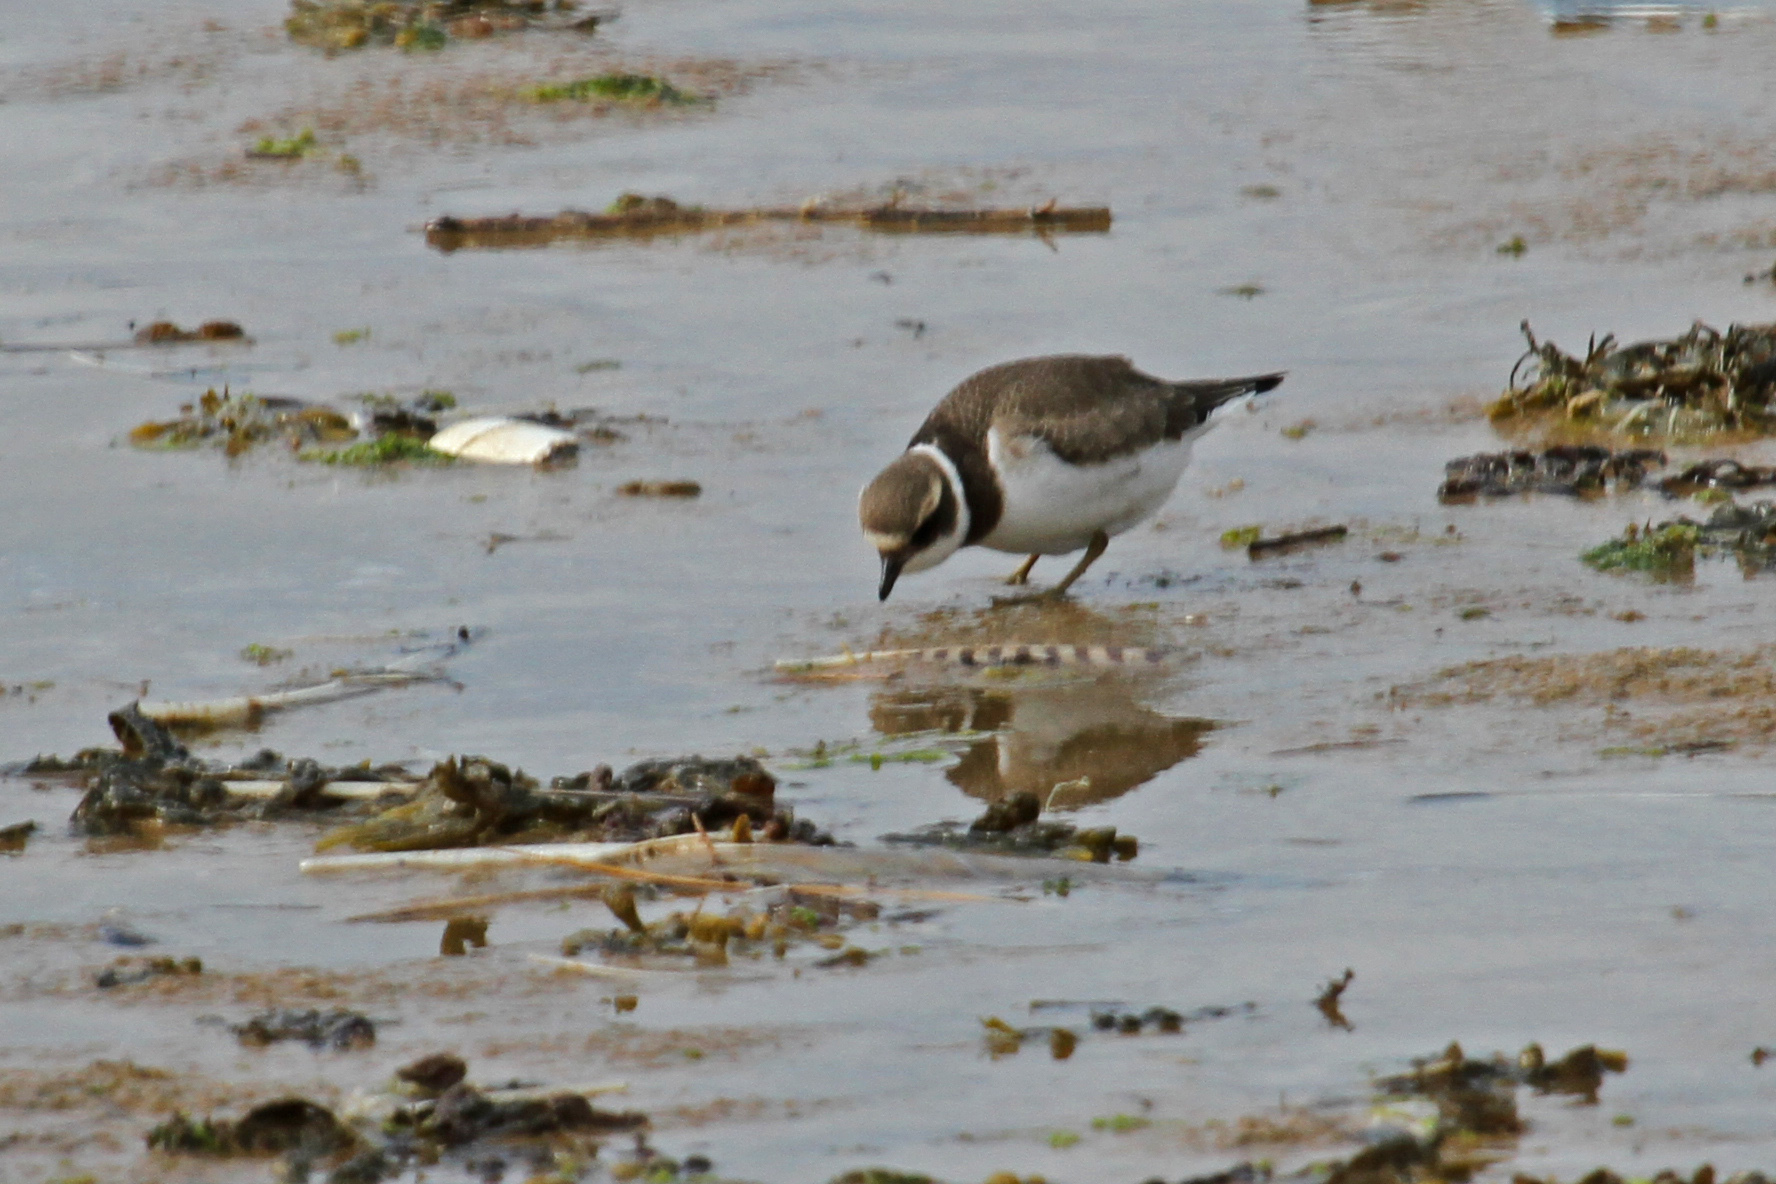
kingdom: Animalia
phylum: Chordata
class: Aves
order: Charadriiformes
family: Charadriidae
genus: Charadrius
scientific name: Charadrius hiaticula
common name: Common ringed plover
